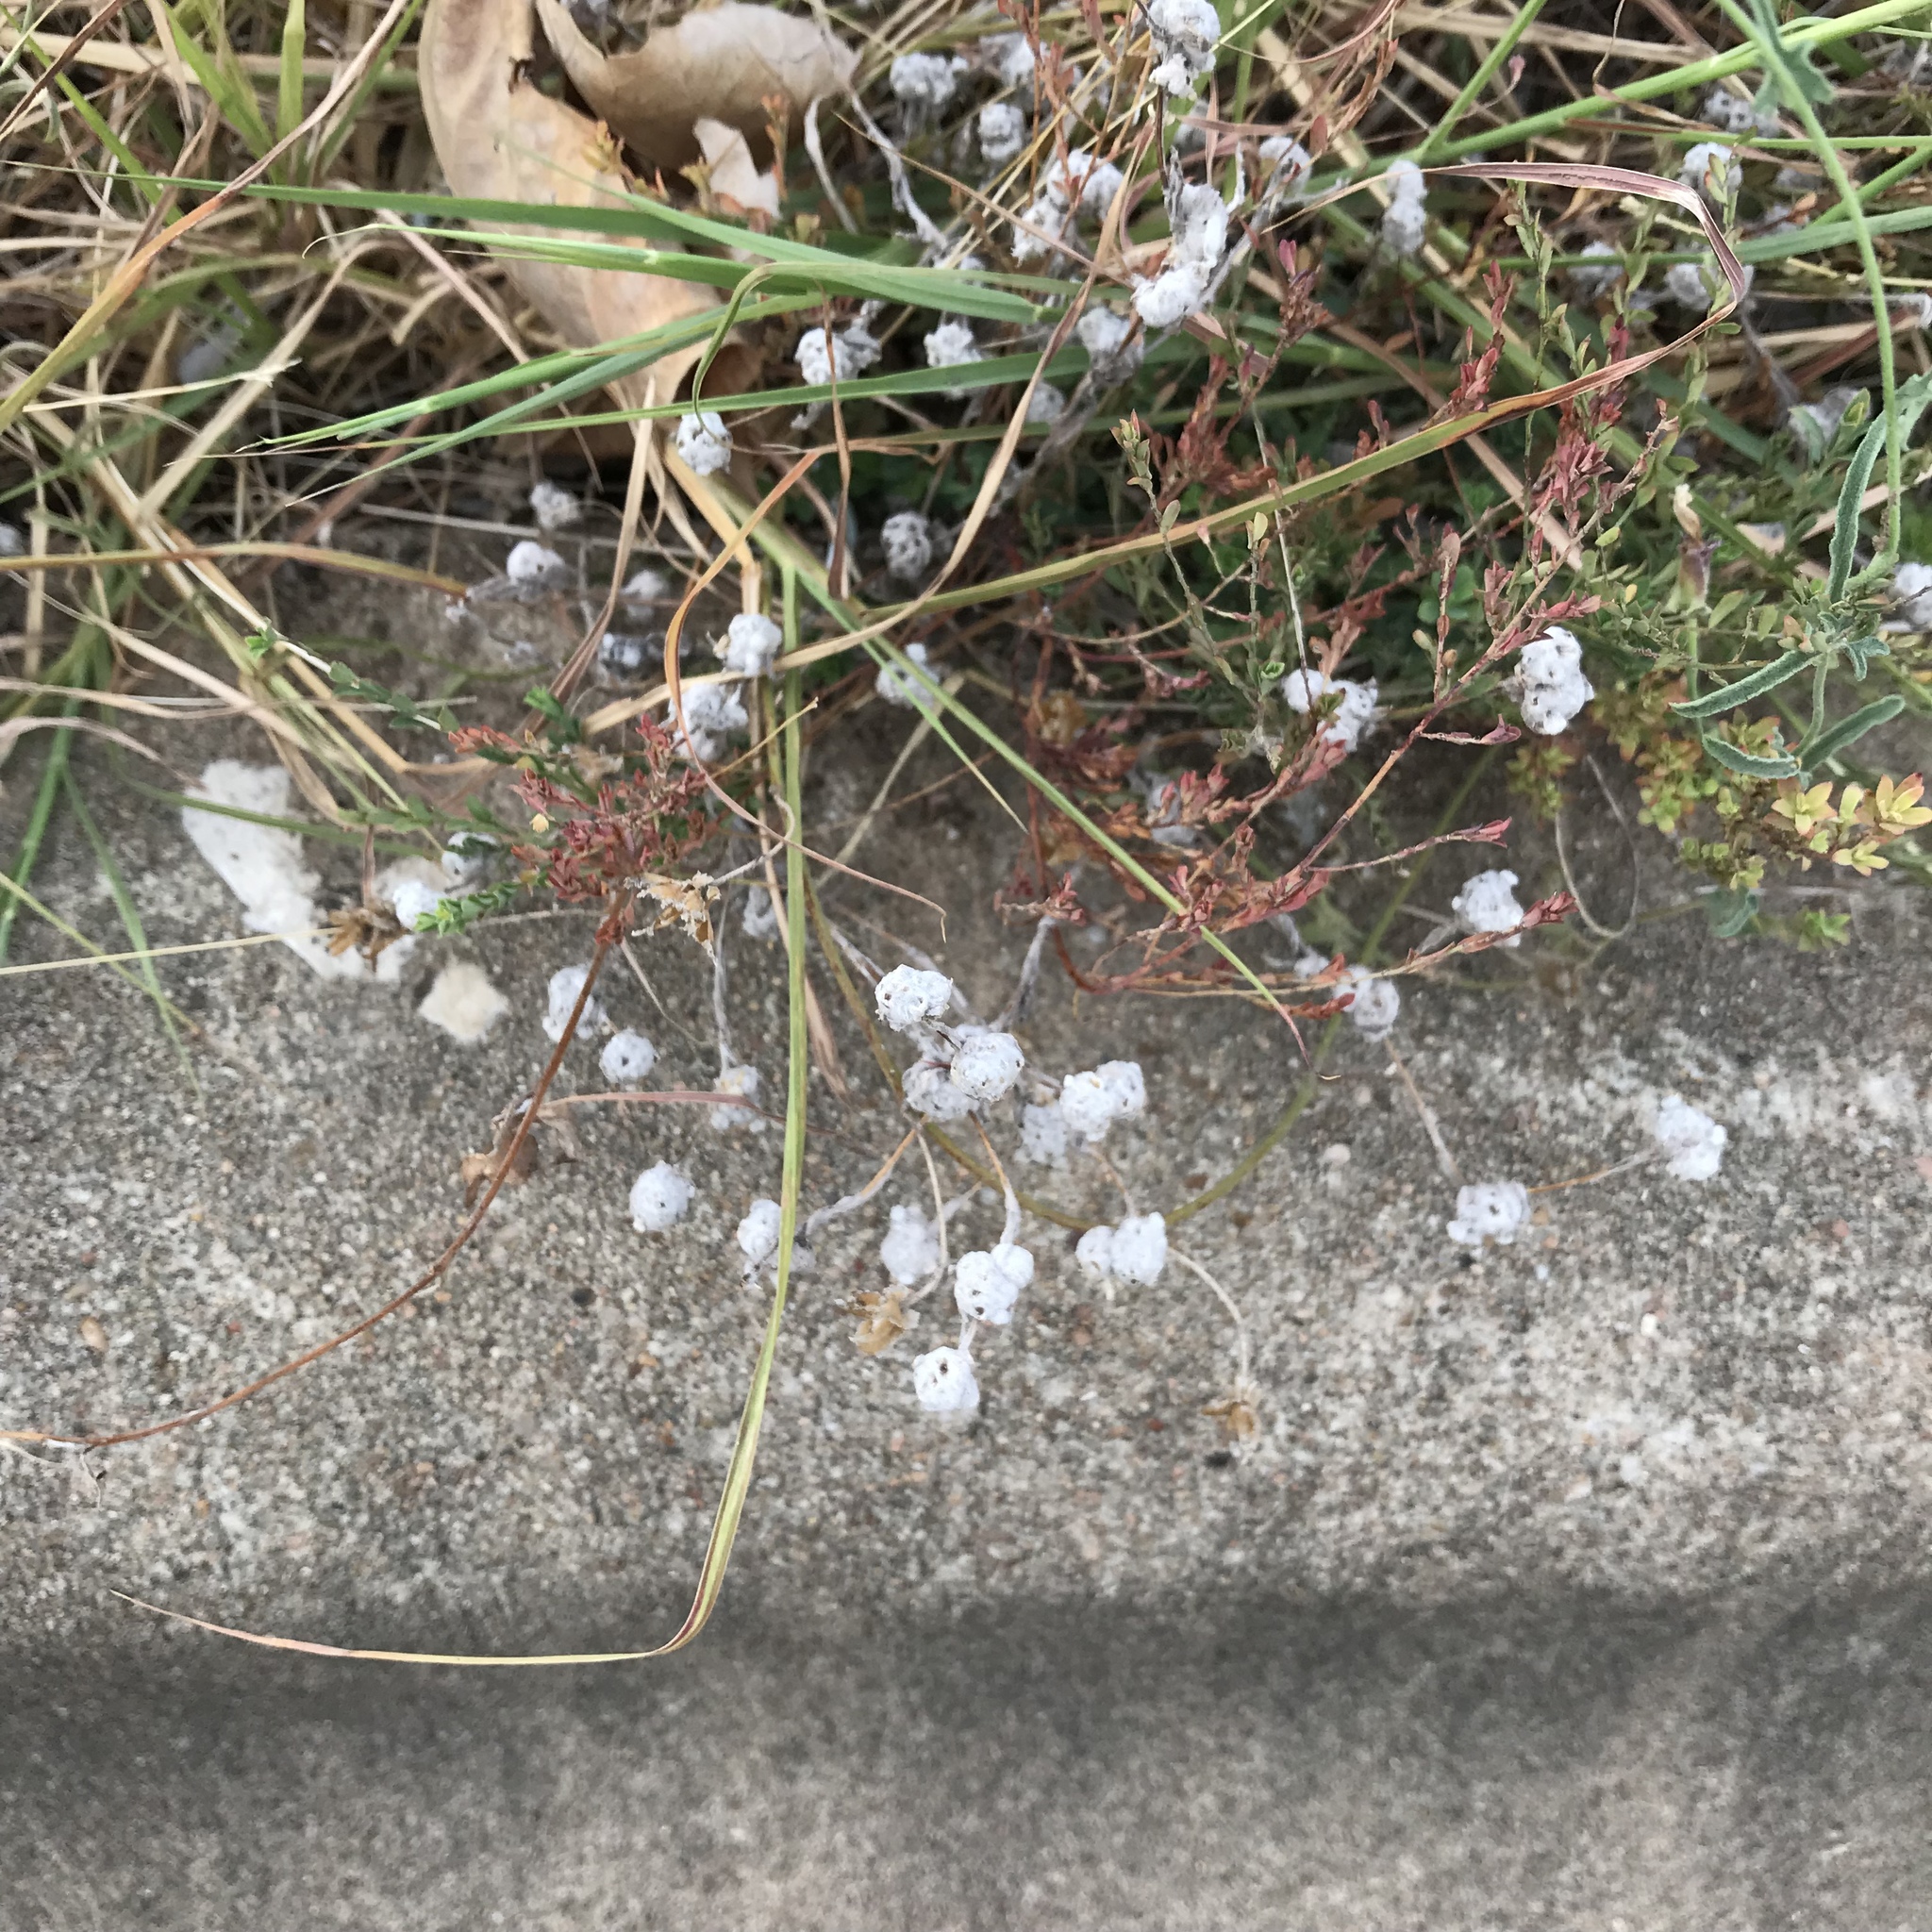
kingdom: Plantae
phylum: Tracheophyta
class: Magnoliopsida
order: Asterales
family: Asteraceae
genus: Diaperia
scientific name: Diaperia verna
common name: Many-stem rabbit-tobacco
